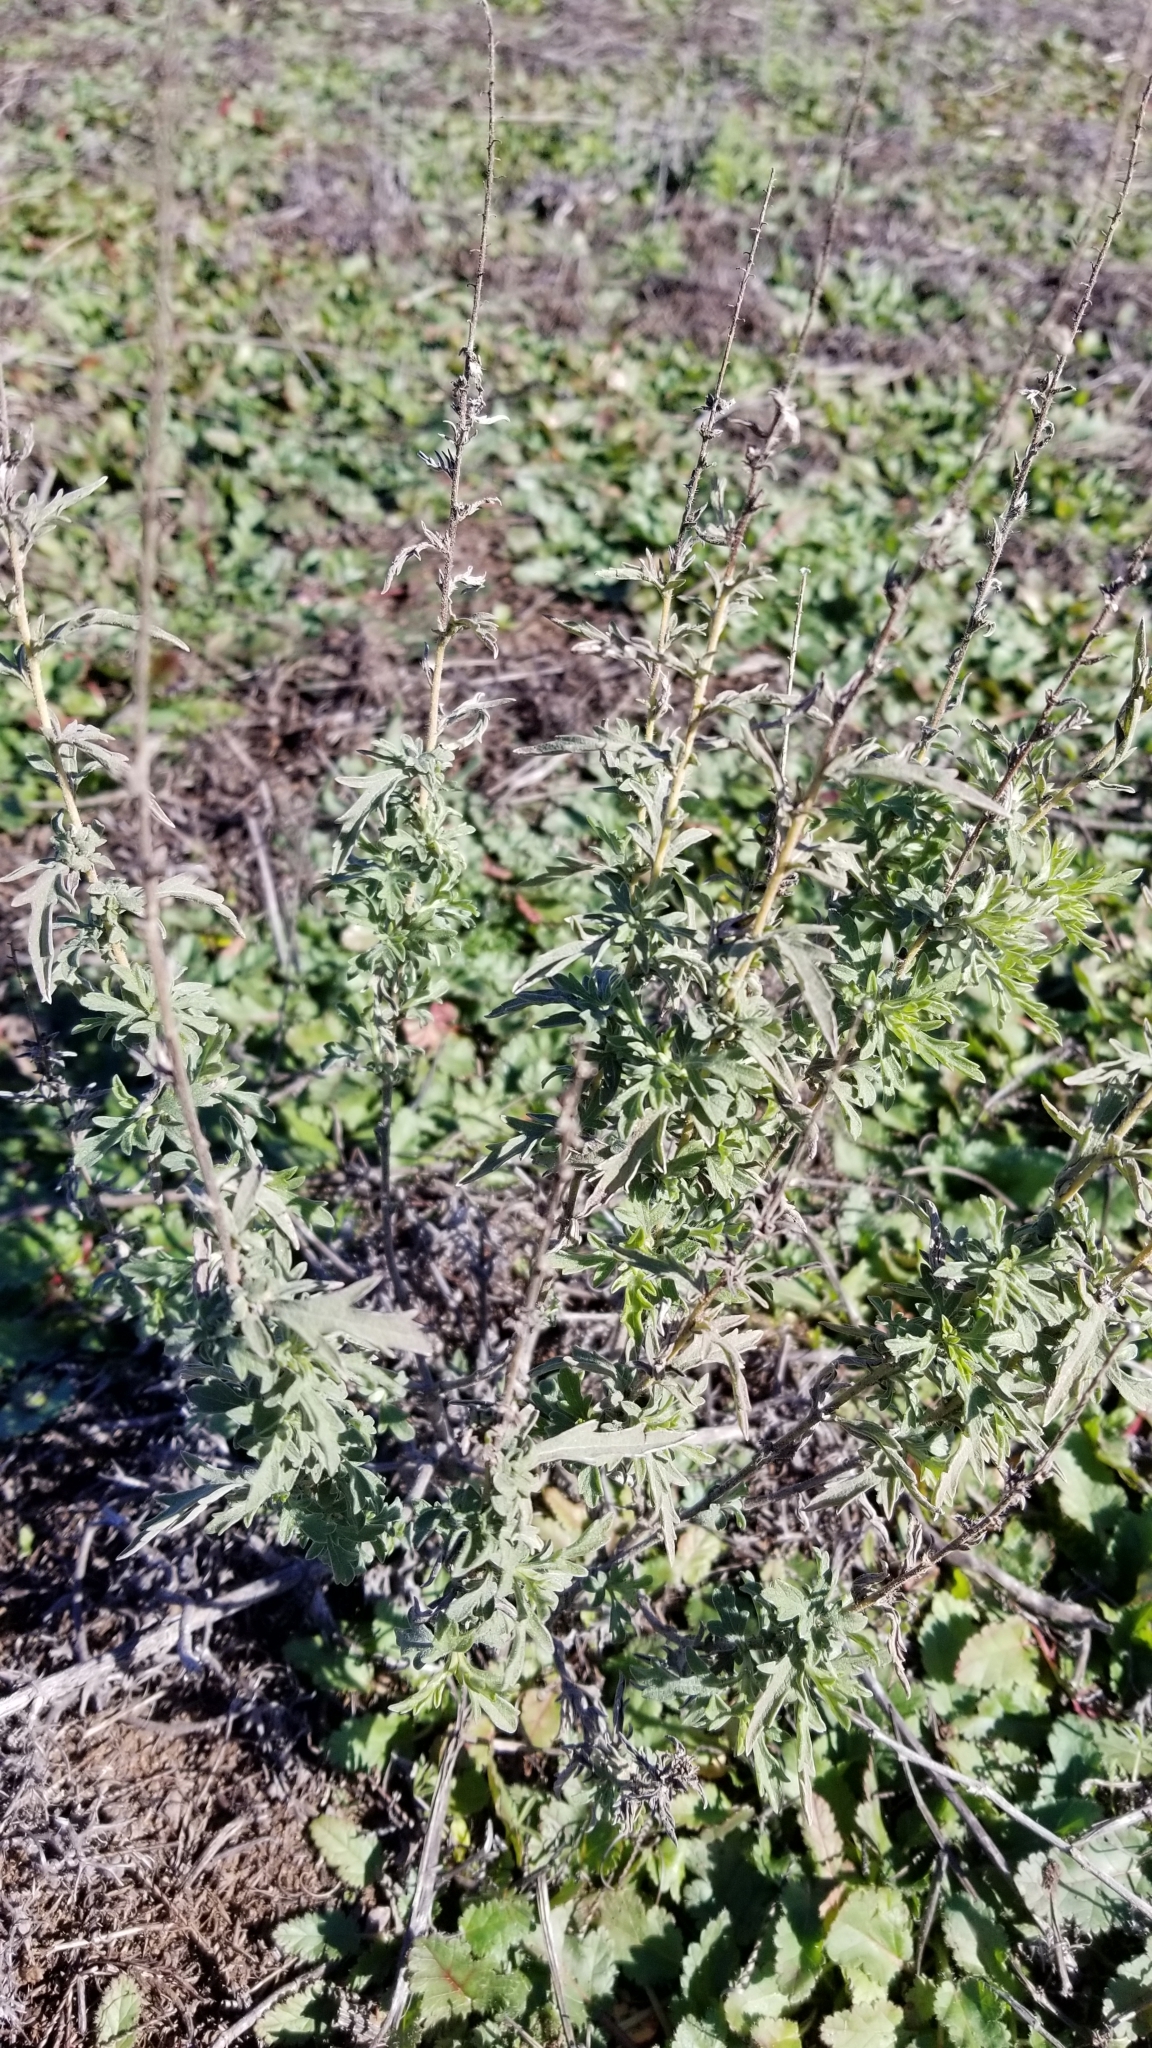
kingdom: Plantae
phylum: Tracheophyta
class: Magnoliopsida
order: Asterales
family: Asteraceae
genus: Ambrosia
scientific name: Ambrosia psilostachya
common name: Perennial ragweed
